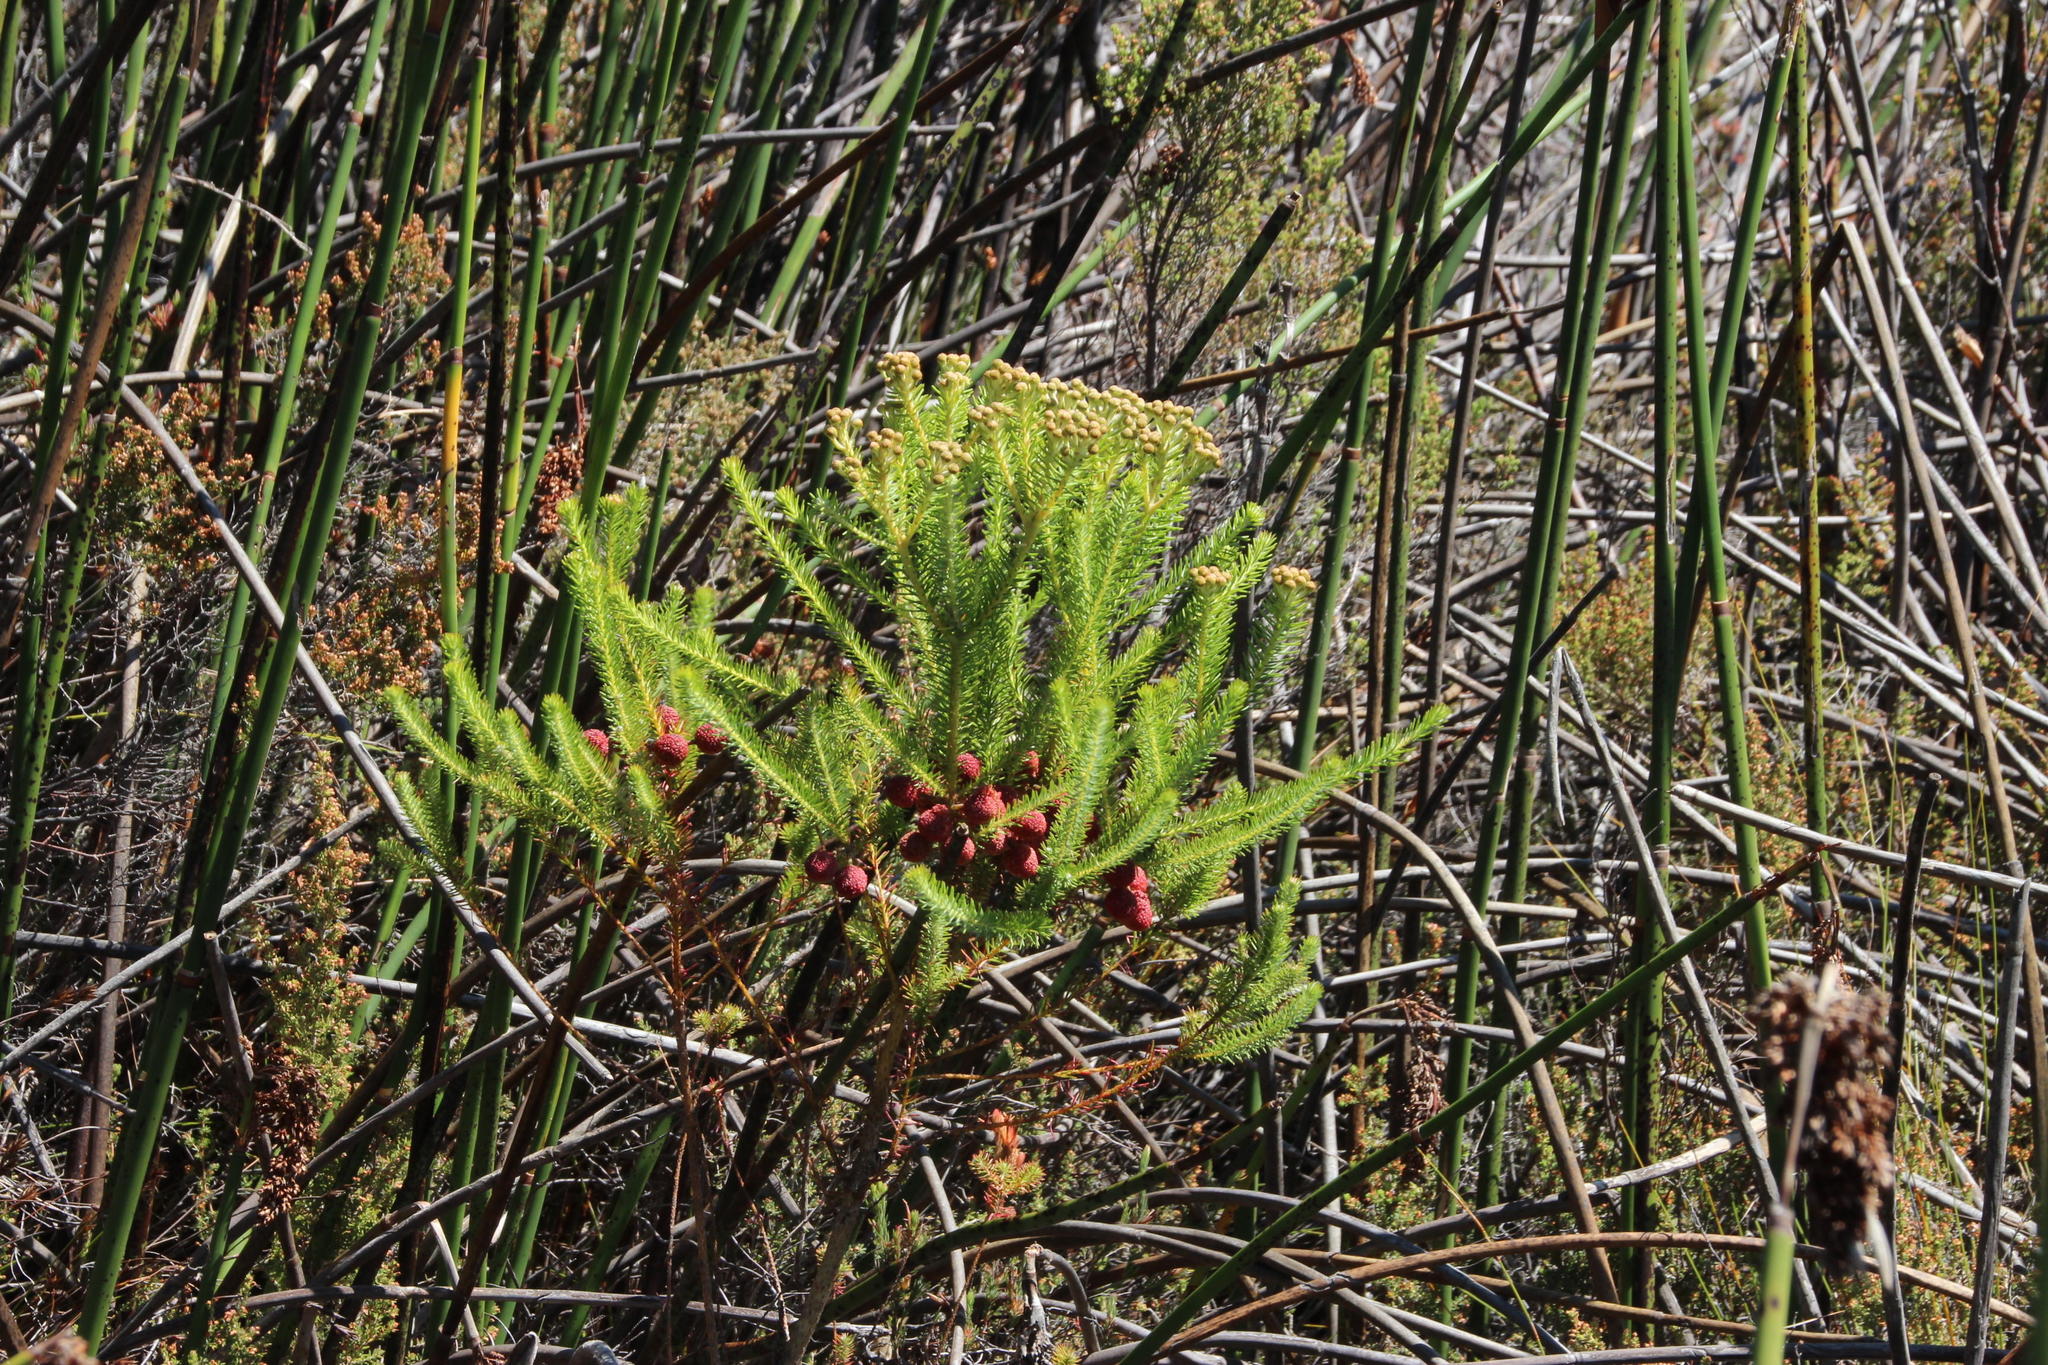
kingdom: Plantae
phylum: Tracheophyta
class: Magnoliopsida
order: Bruniales
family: Bruniaceae
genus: Berzelia
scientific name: Berzelia squarrosa
